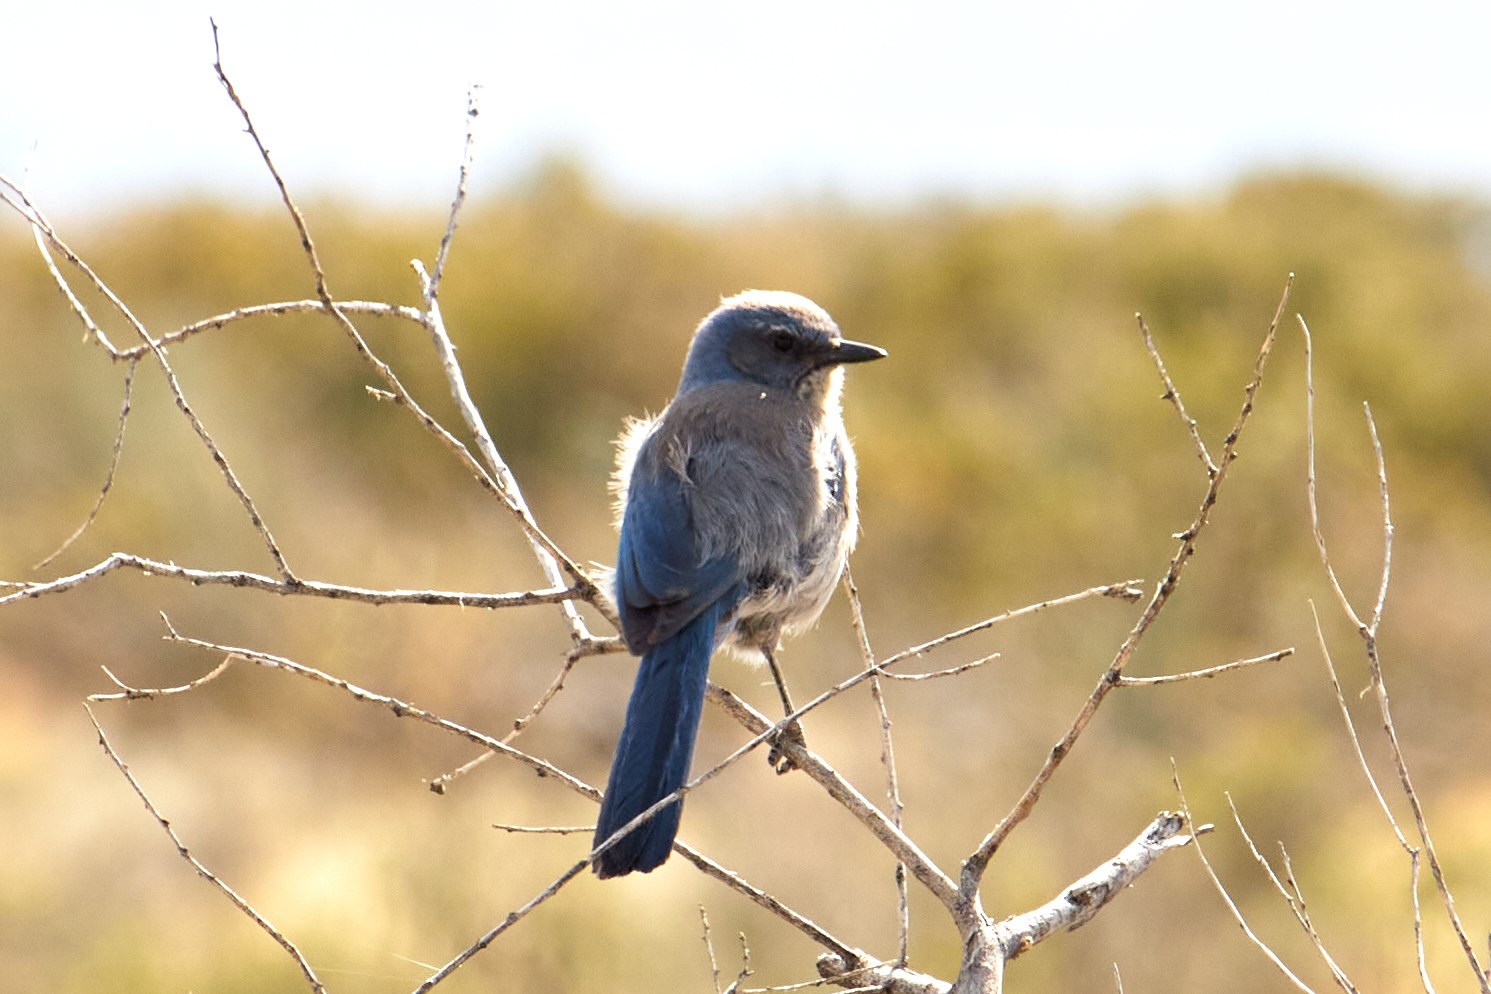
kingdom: Animalia
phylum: Chordata
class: Aves
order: Passeriformes
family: Corvidae
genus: Aphelocoma
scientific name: Aphelocoma woodhouseii
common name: Woodhouse's scrub-jay
